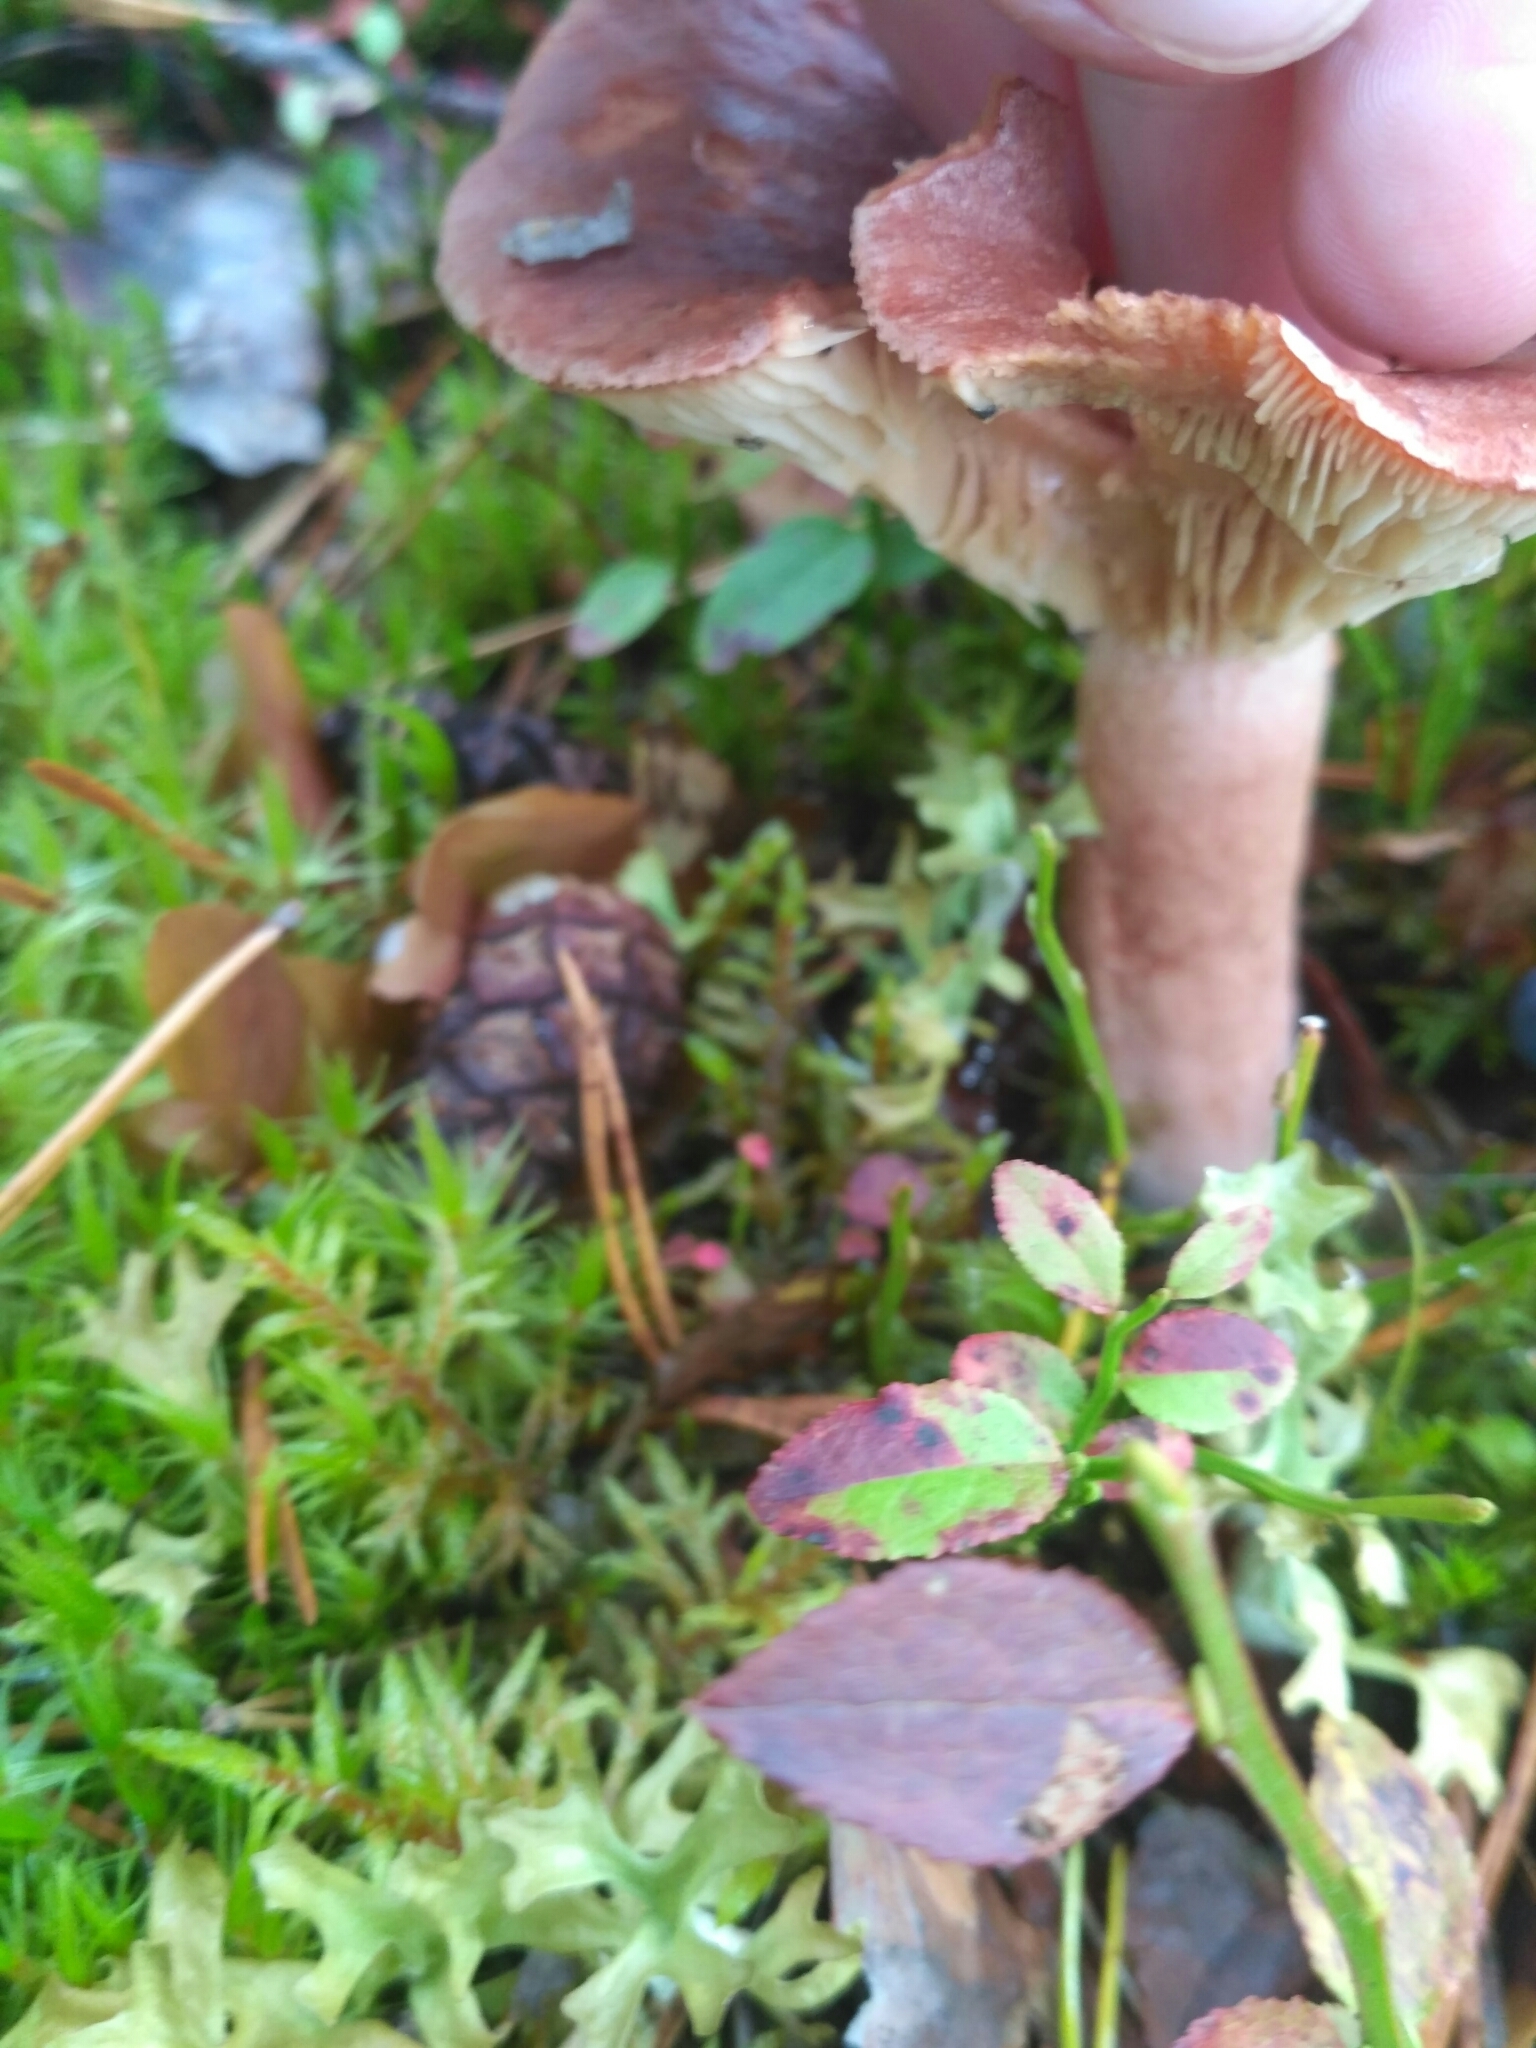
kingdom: Fungi
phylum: Basidiomycota
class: Agaricomycetes
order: Russulales
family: Russulaceae
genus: Lactarius
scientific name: Lactarius rufus
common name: Rufous milk-cap
